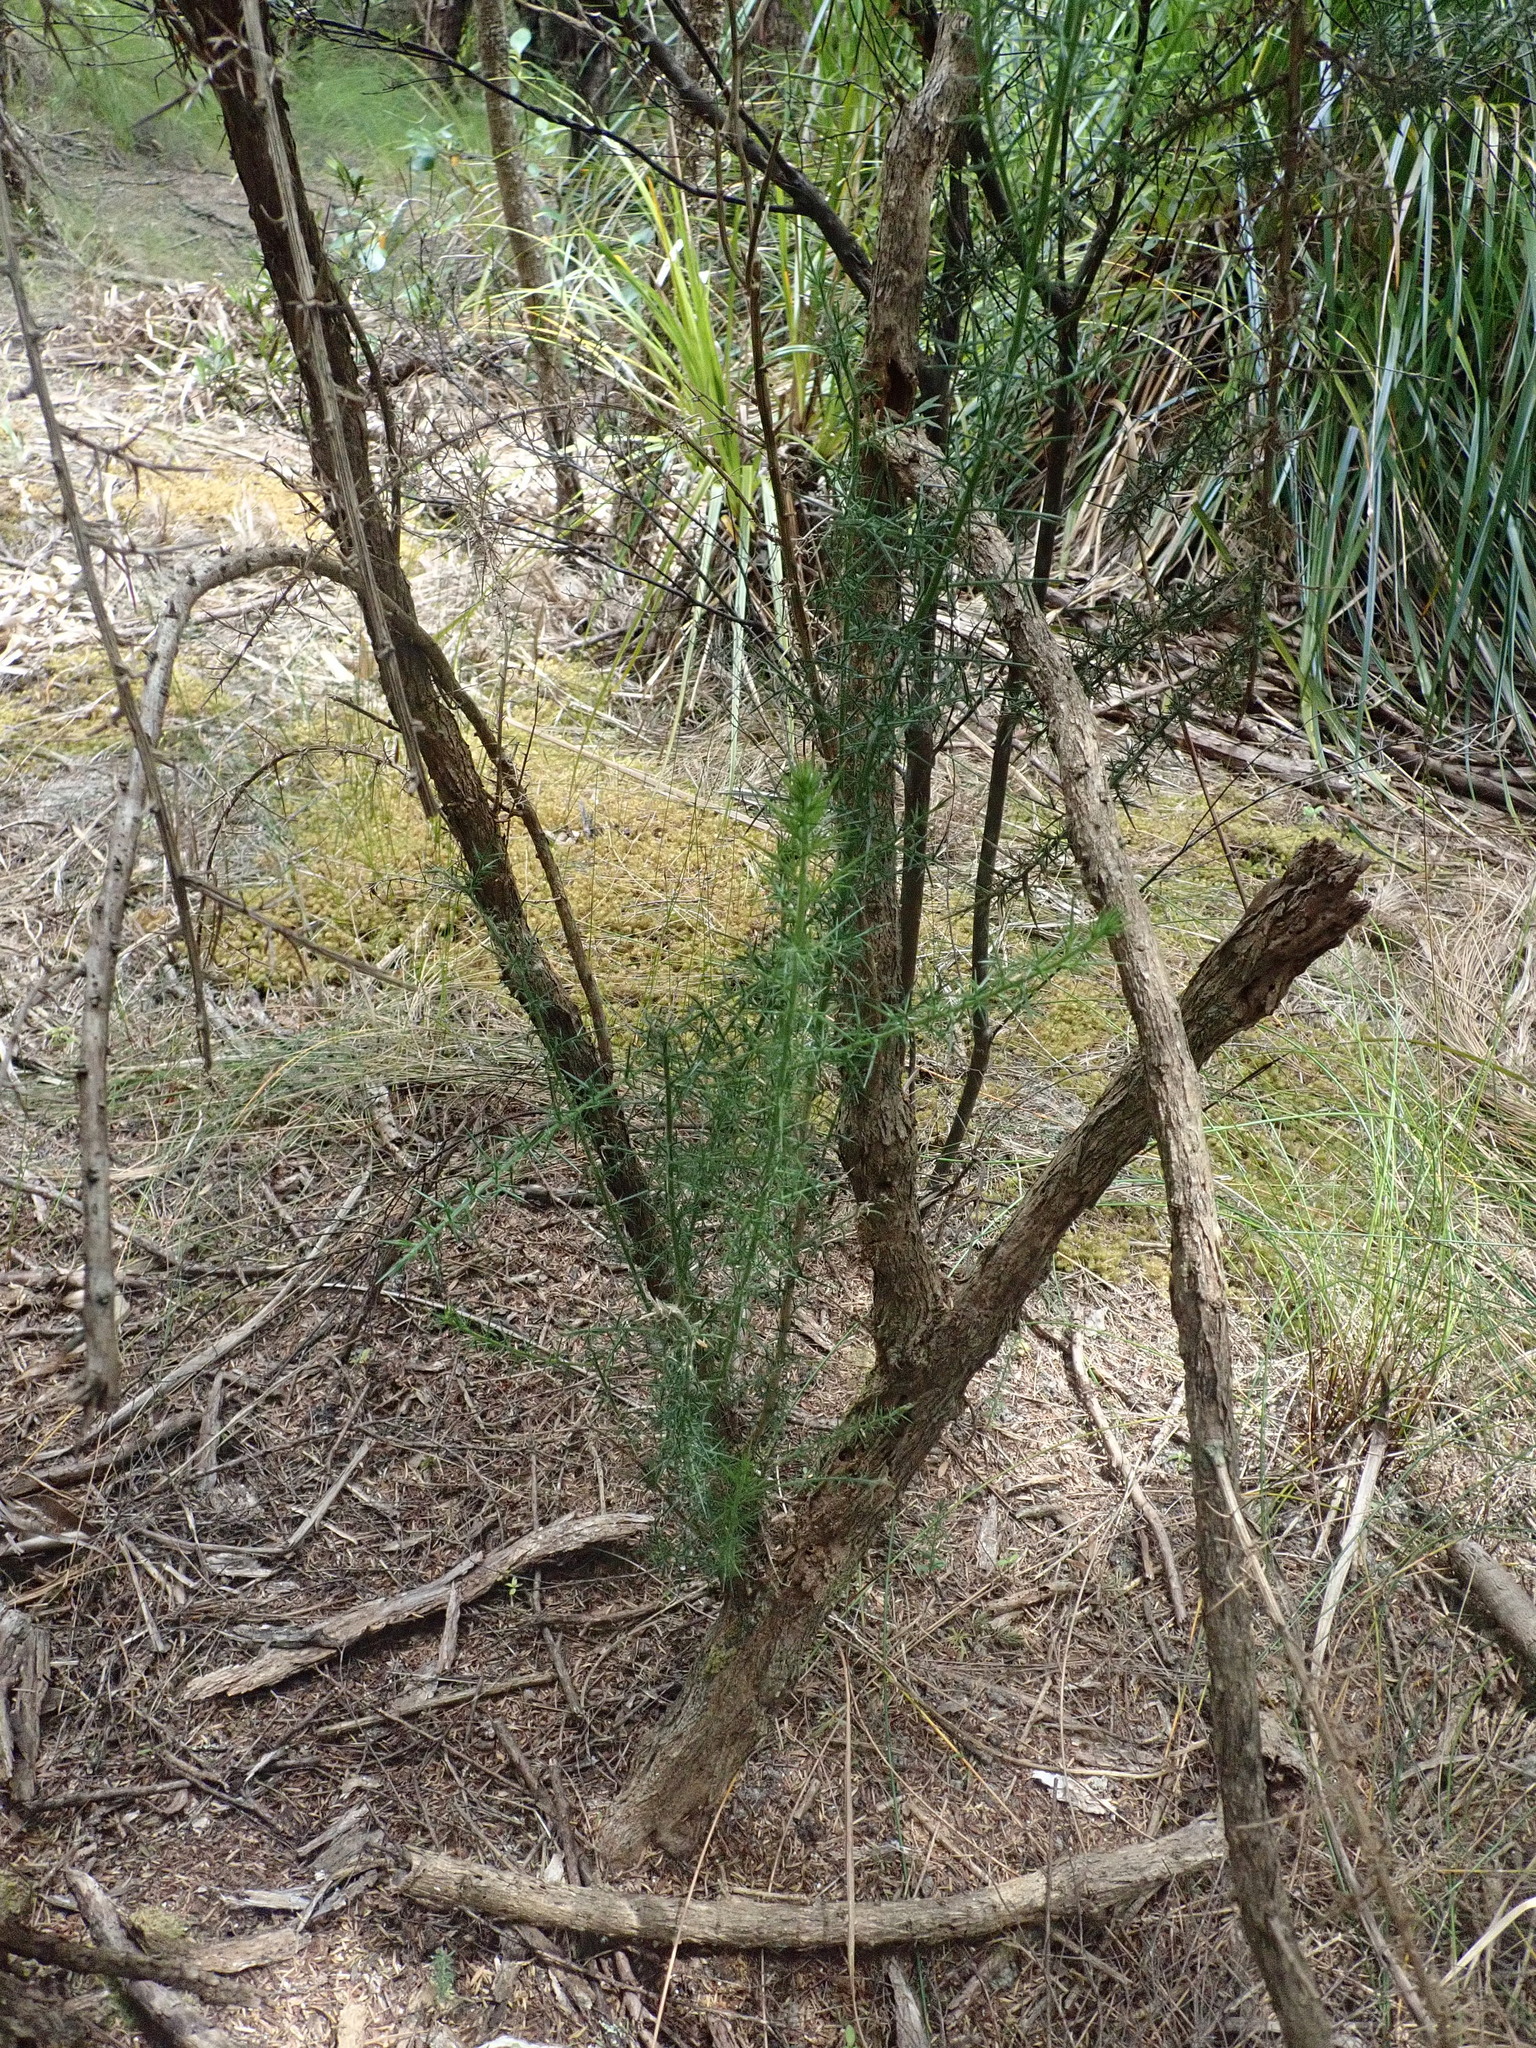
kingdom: Plantae
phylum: Bryophyta
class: Bryopsida
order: Ptychomniales
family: Ptychomniaceae
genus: Ptychomnion
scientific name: Ptychomnion aciculare
